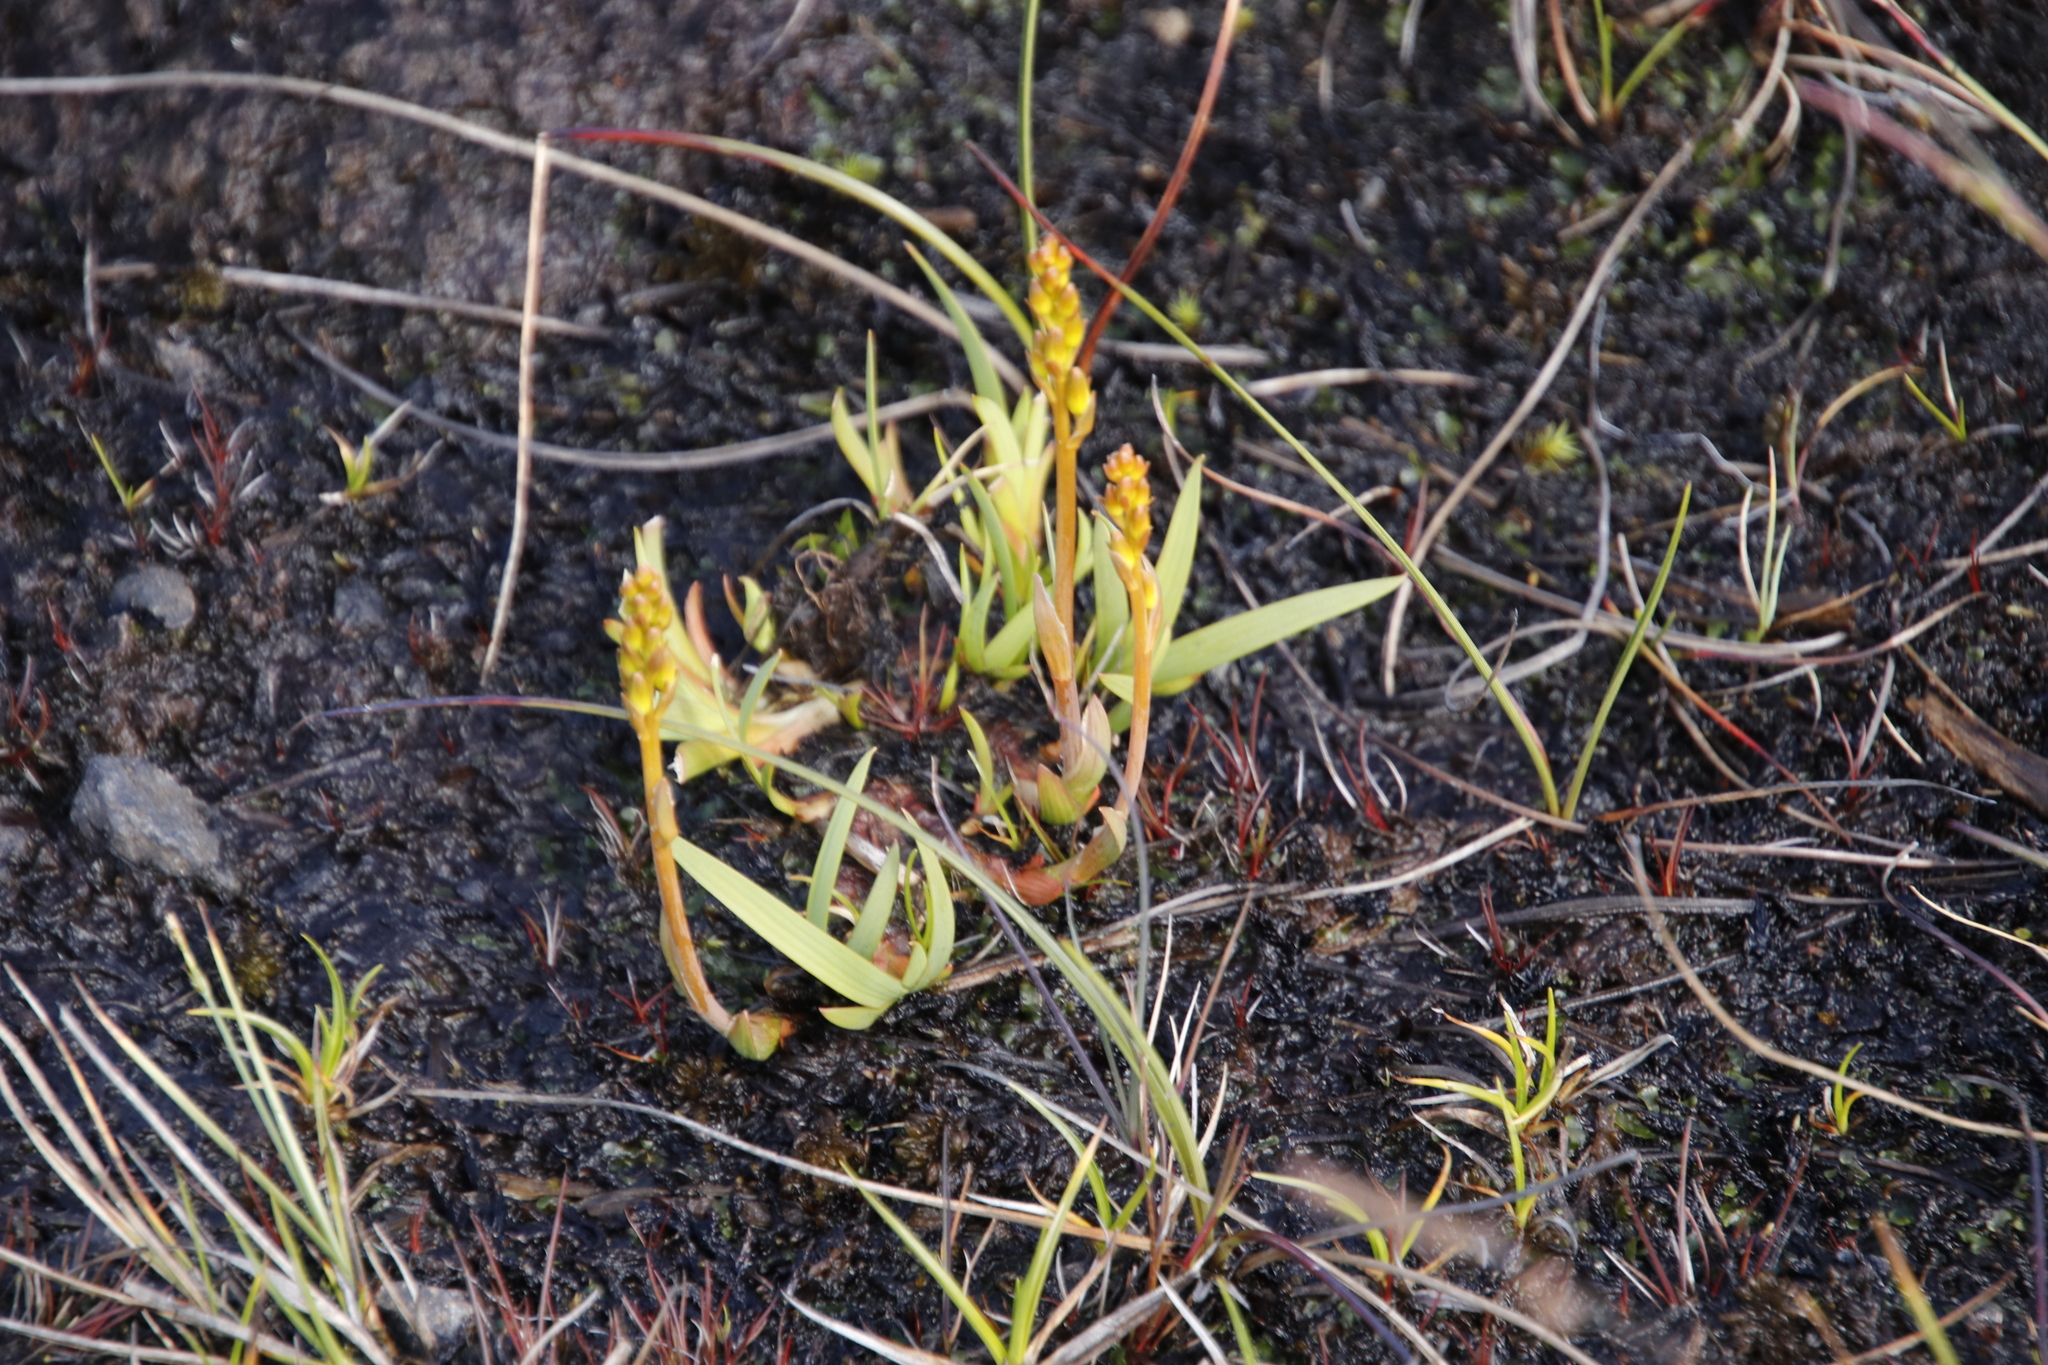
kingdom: Plantae
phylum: Tracheophyta
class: Liliopsida
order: Dioscoreales
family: Nartheciaceae
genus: Narthecium
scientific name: Narthecium ossifragum
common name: Bog asphodel
